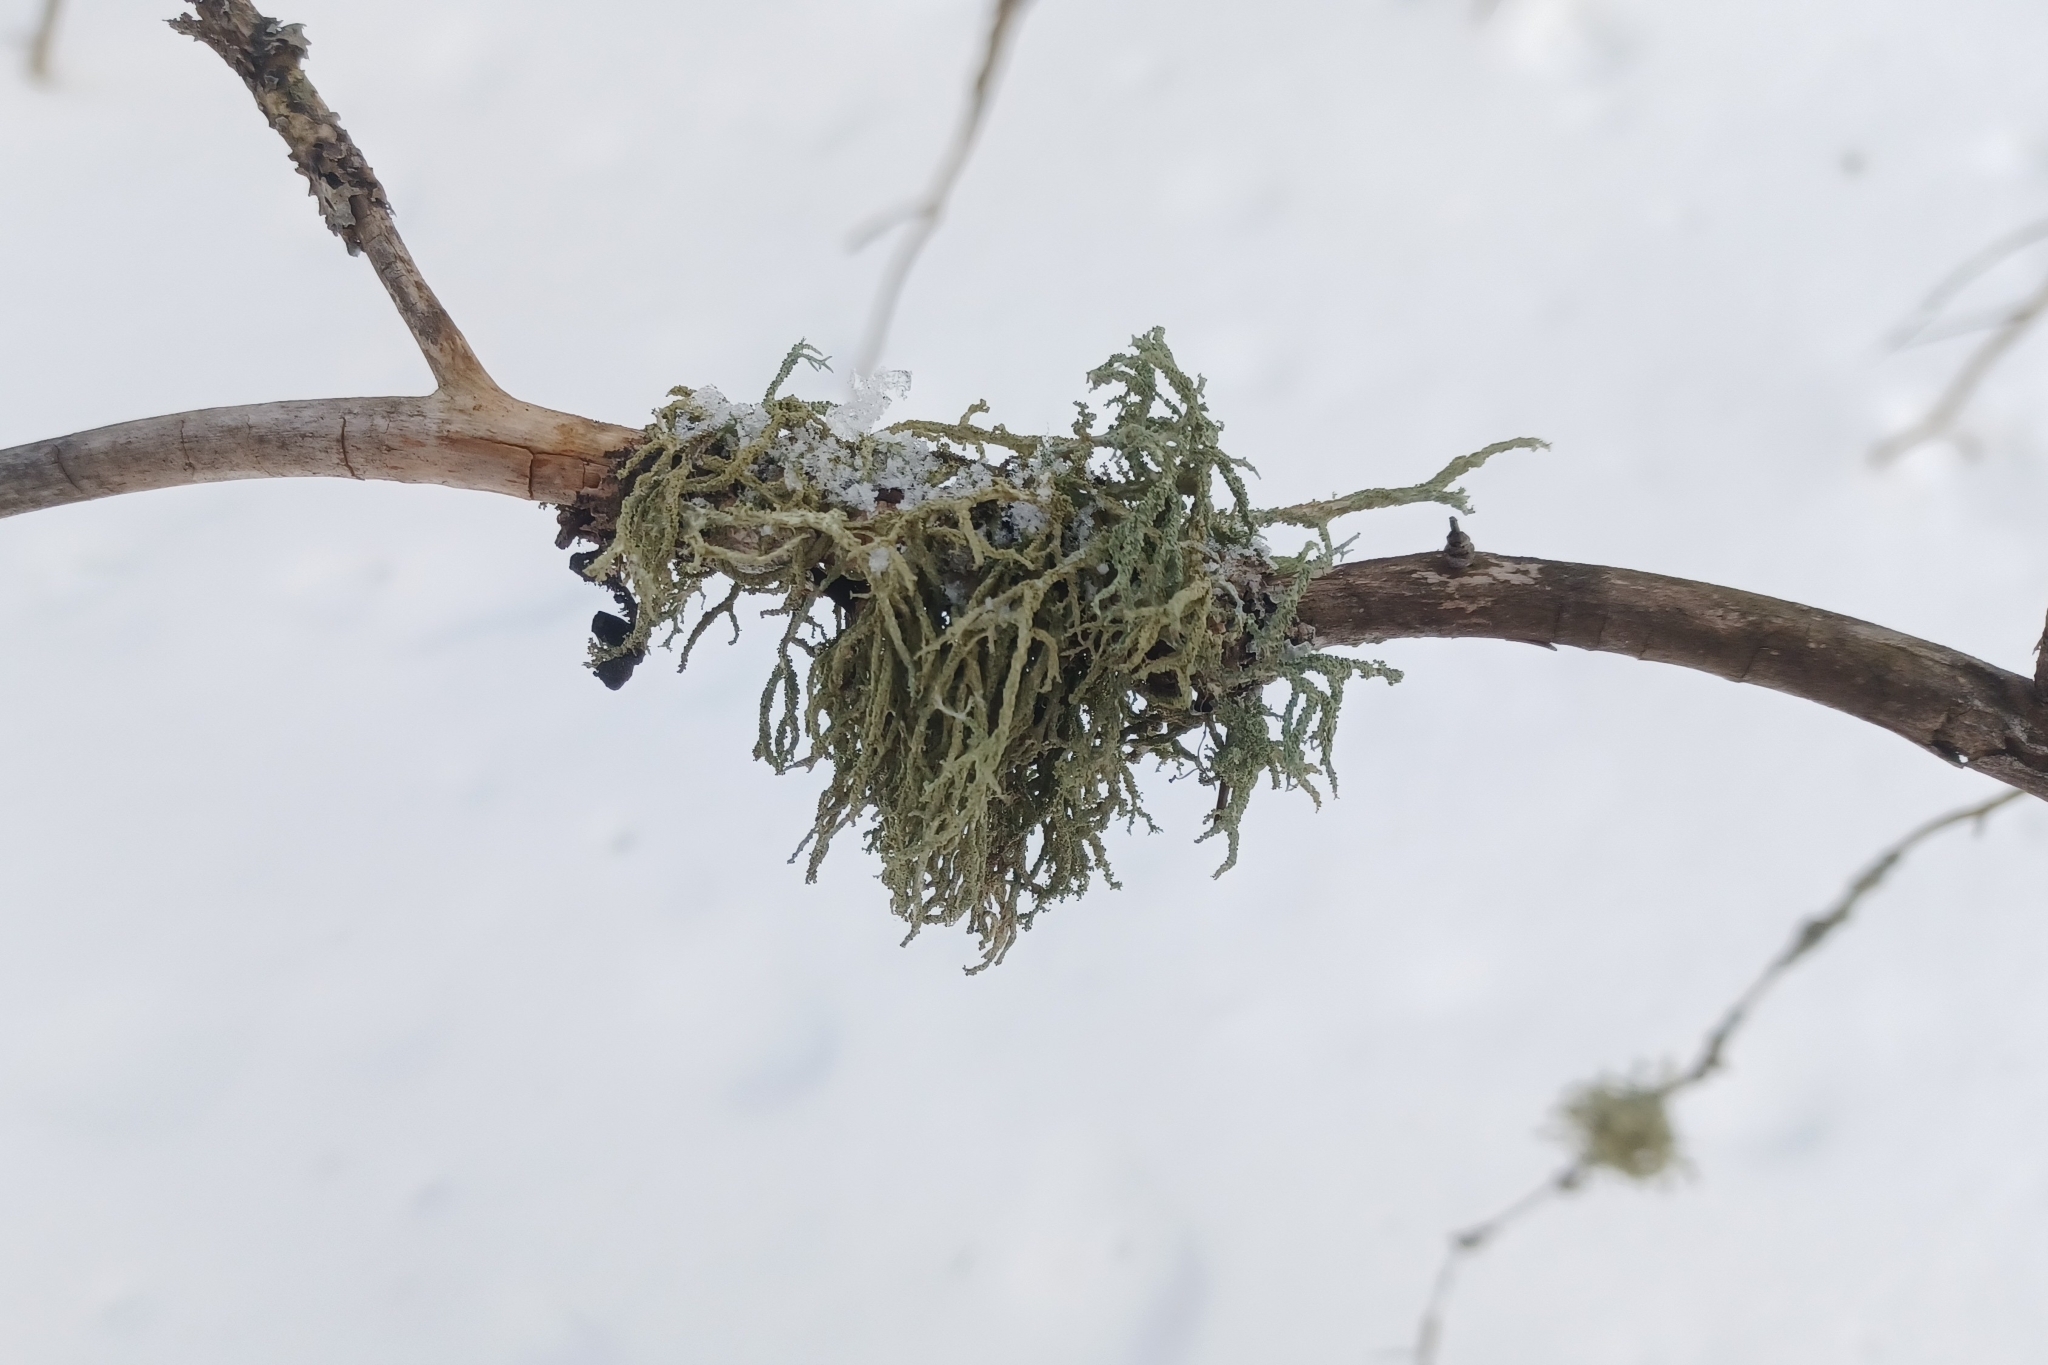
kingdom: Fungi
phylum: Ascomycota
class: Lecanoromycetes
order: Lecanorales
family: Parmeliaceae
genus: Evernia
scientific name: Evernia mesomorpha
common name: Boreal oak moss lichen
